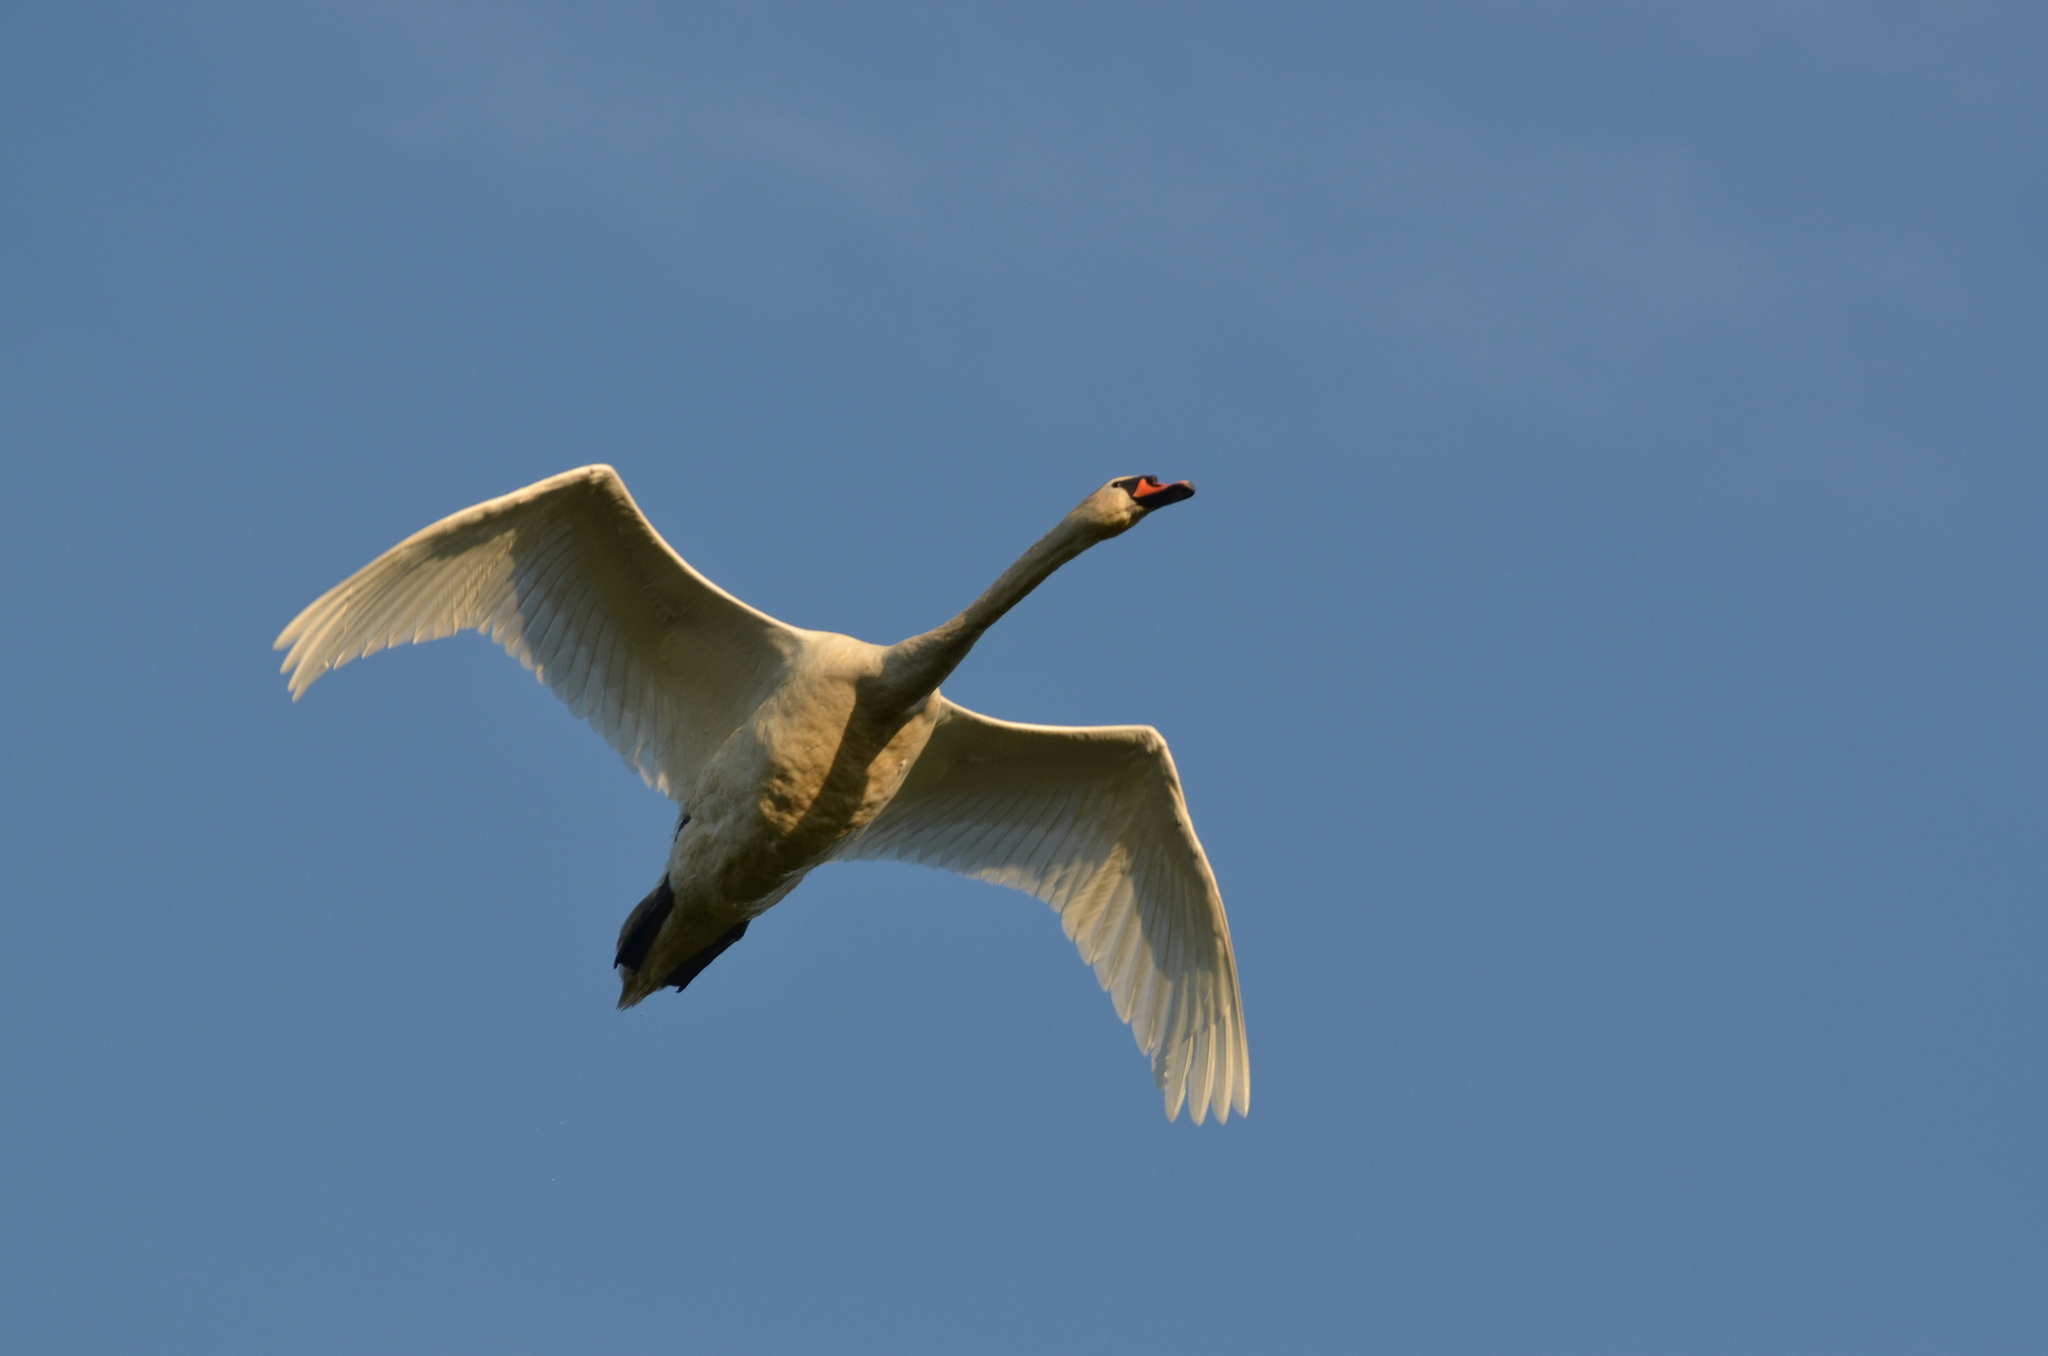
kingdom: Animalia
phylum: Chordata
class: Aves
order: Anseriformes
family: Anatidae
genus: Cygnus
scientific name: Cygnus olor
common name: Mute swan
